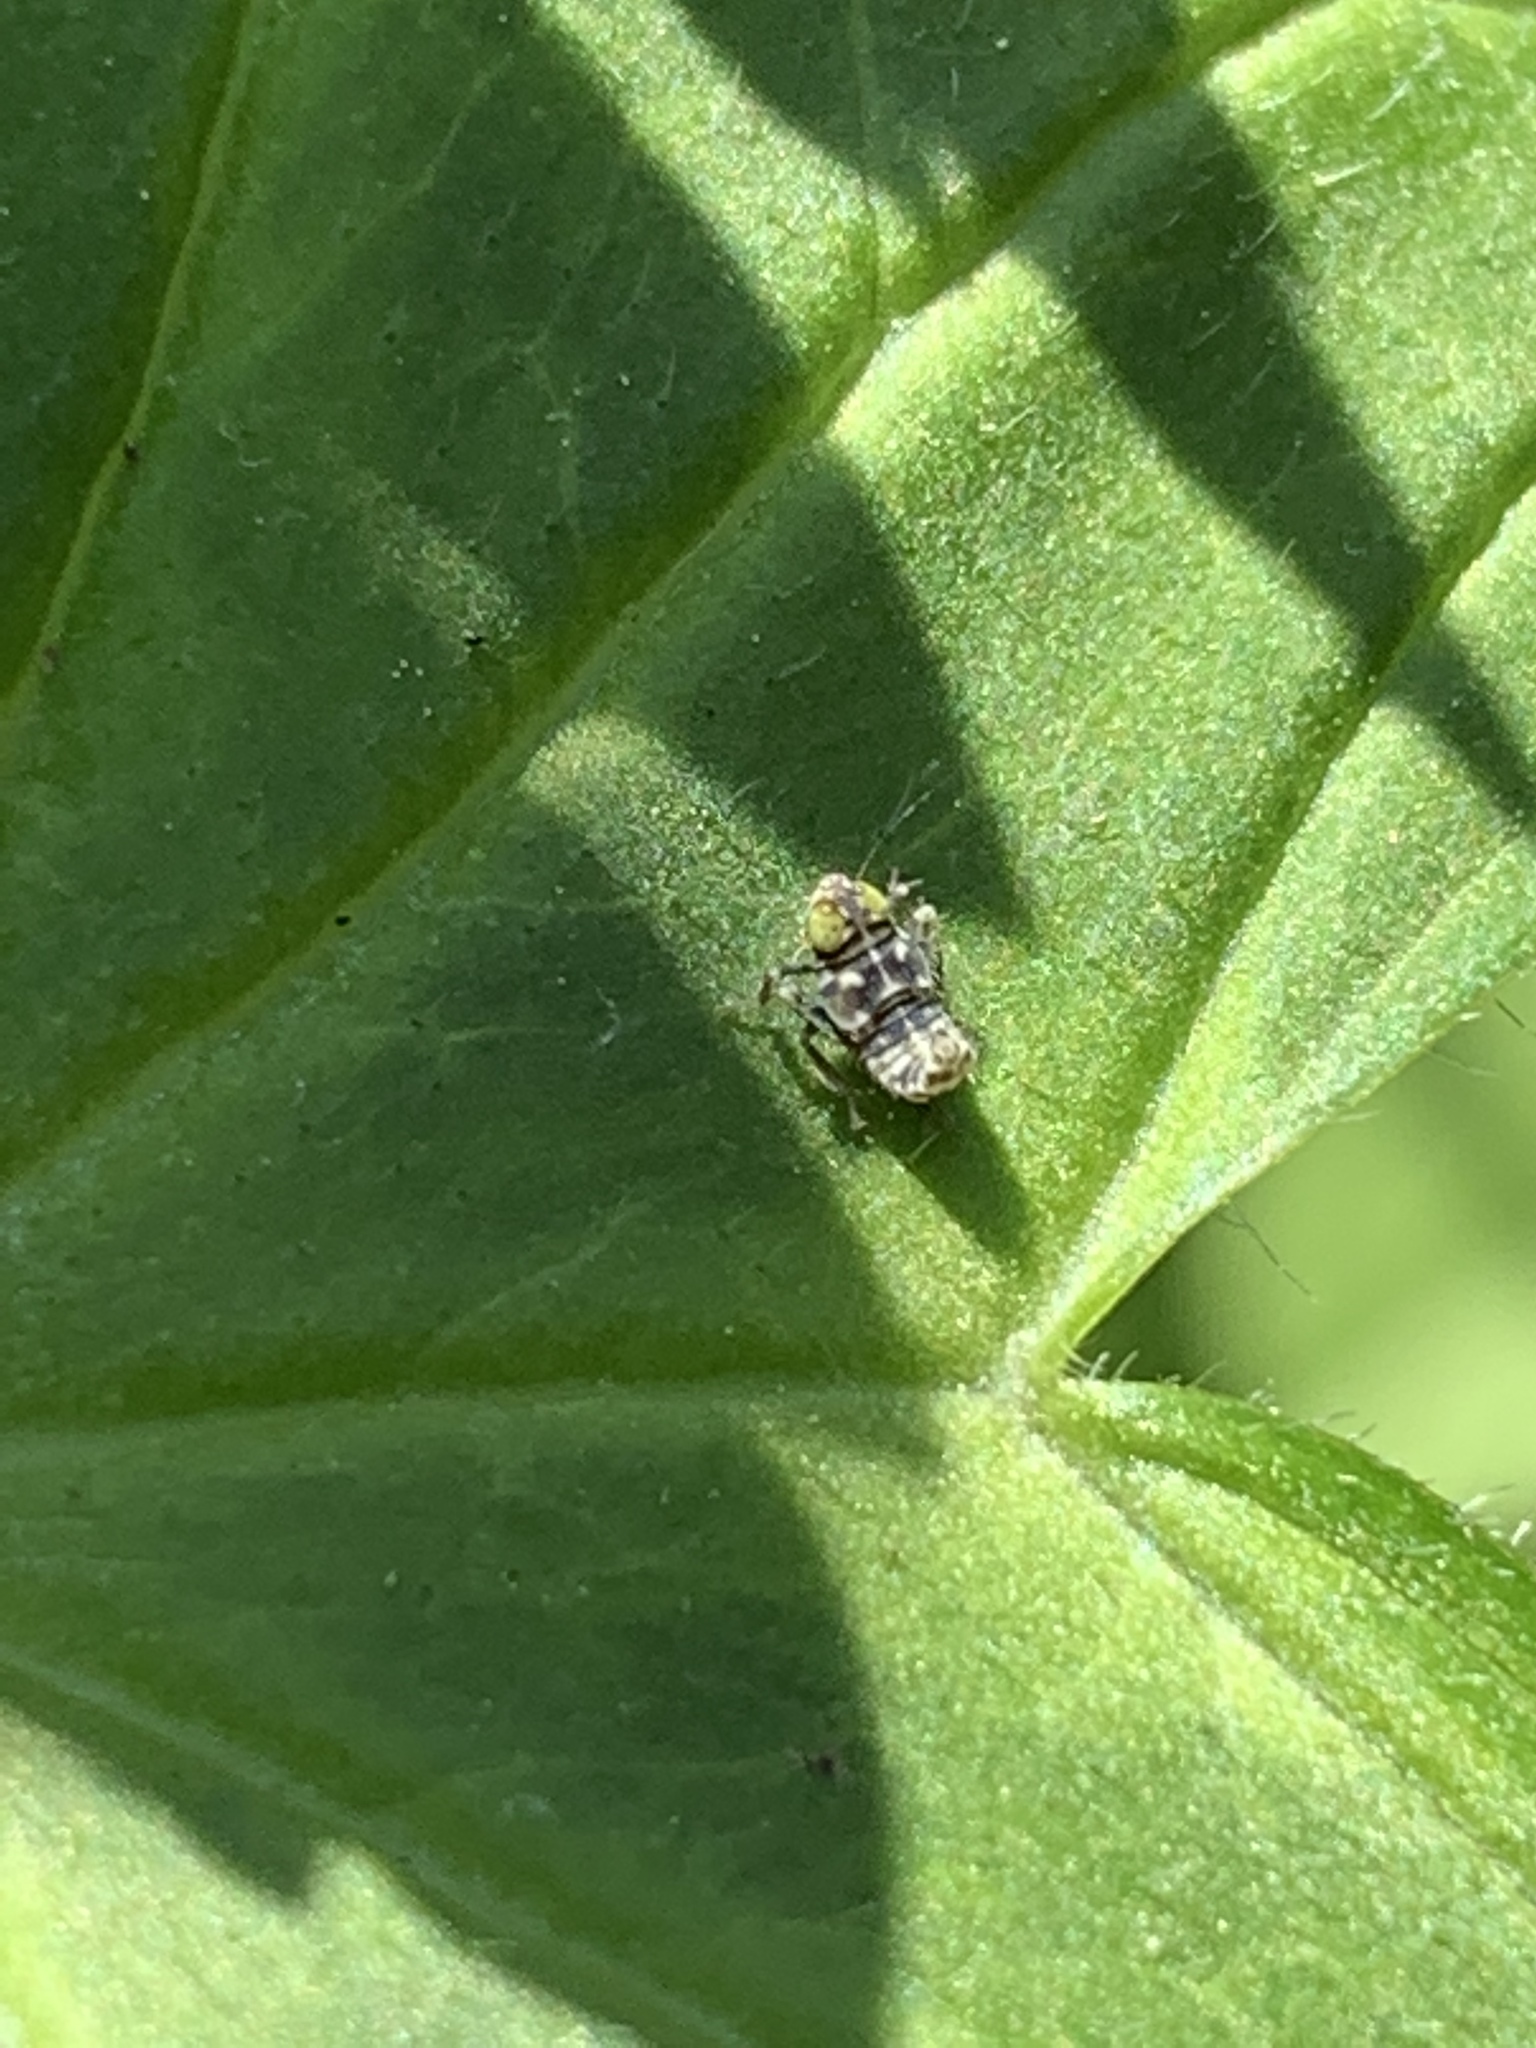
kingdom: Animalia
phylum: Arthropoda
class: Insecta
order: Hemiptera
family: Cicadellidae
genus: Jikradia
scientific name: Jikradia olitoria
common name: Coppery leafhopper
